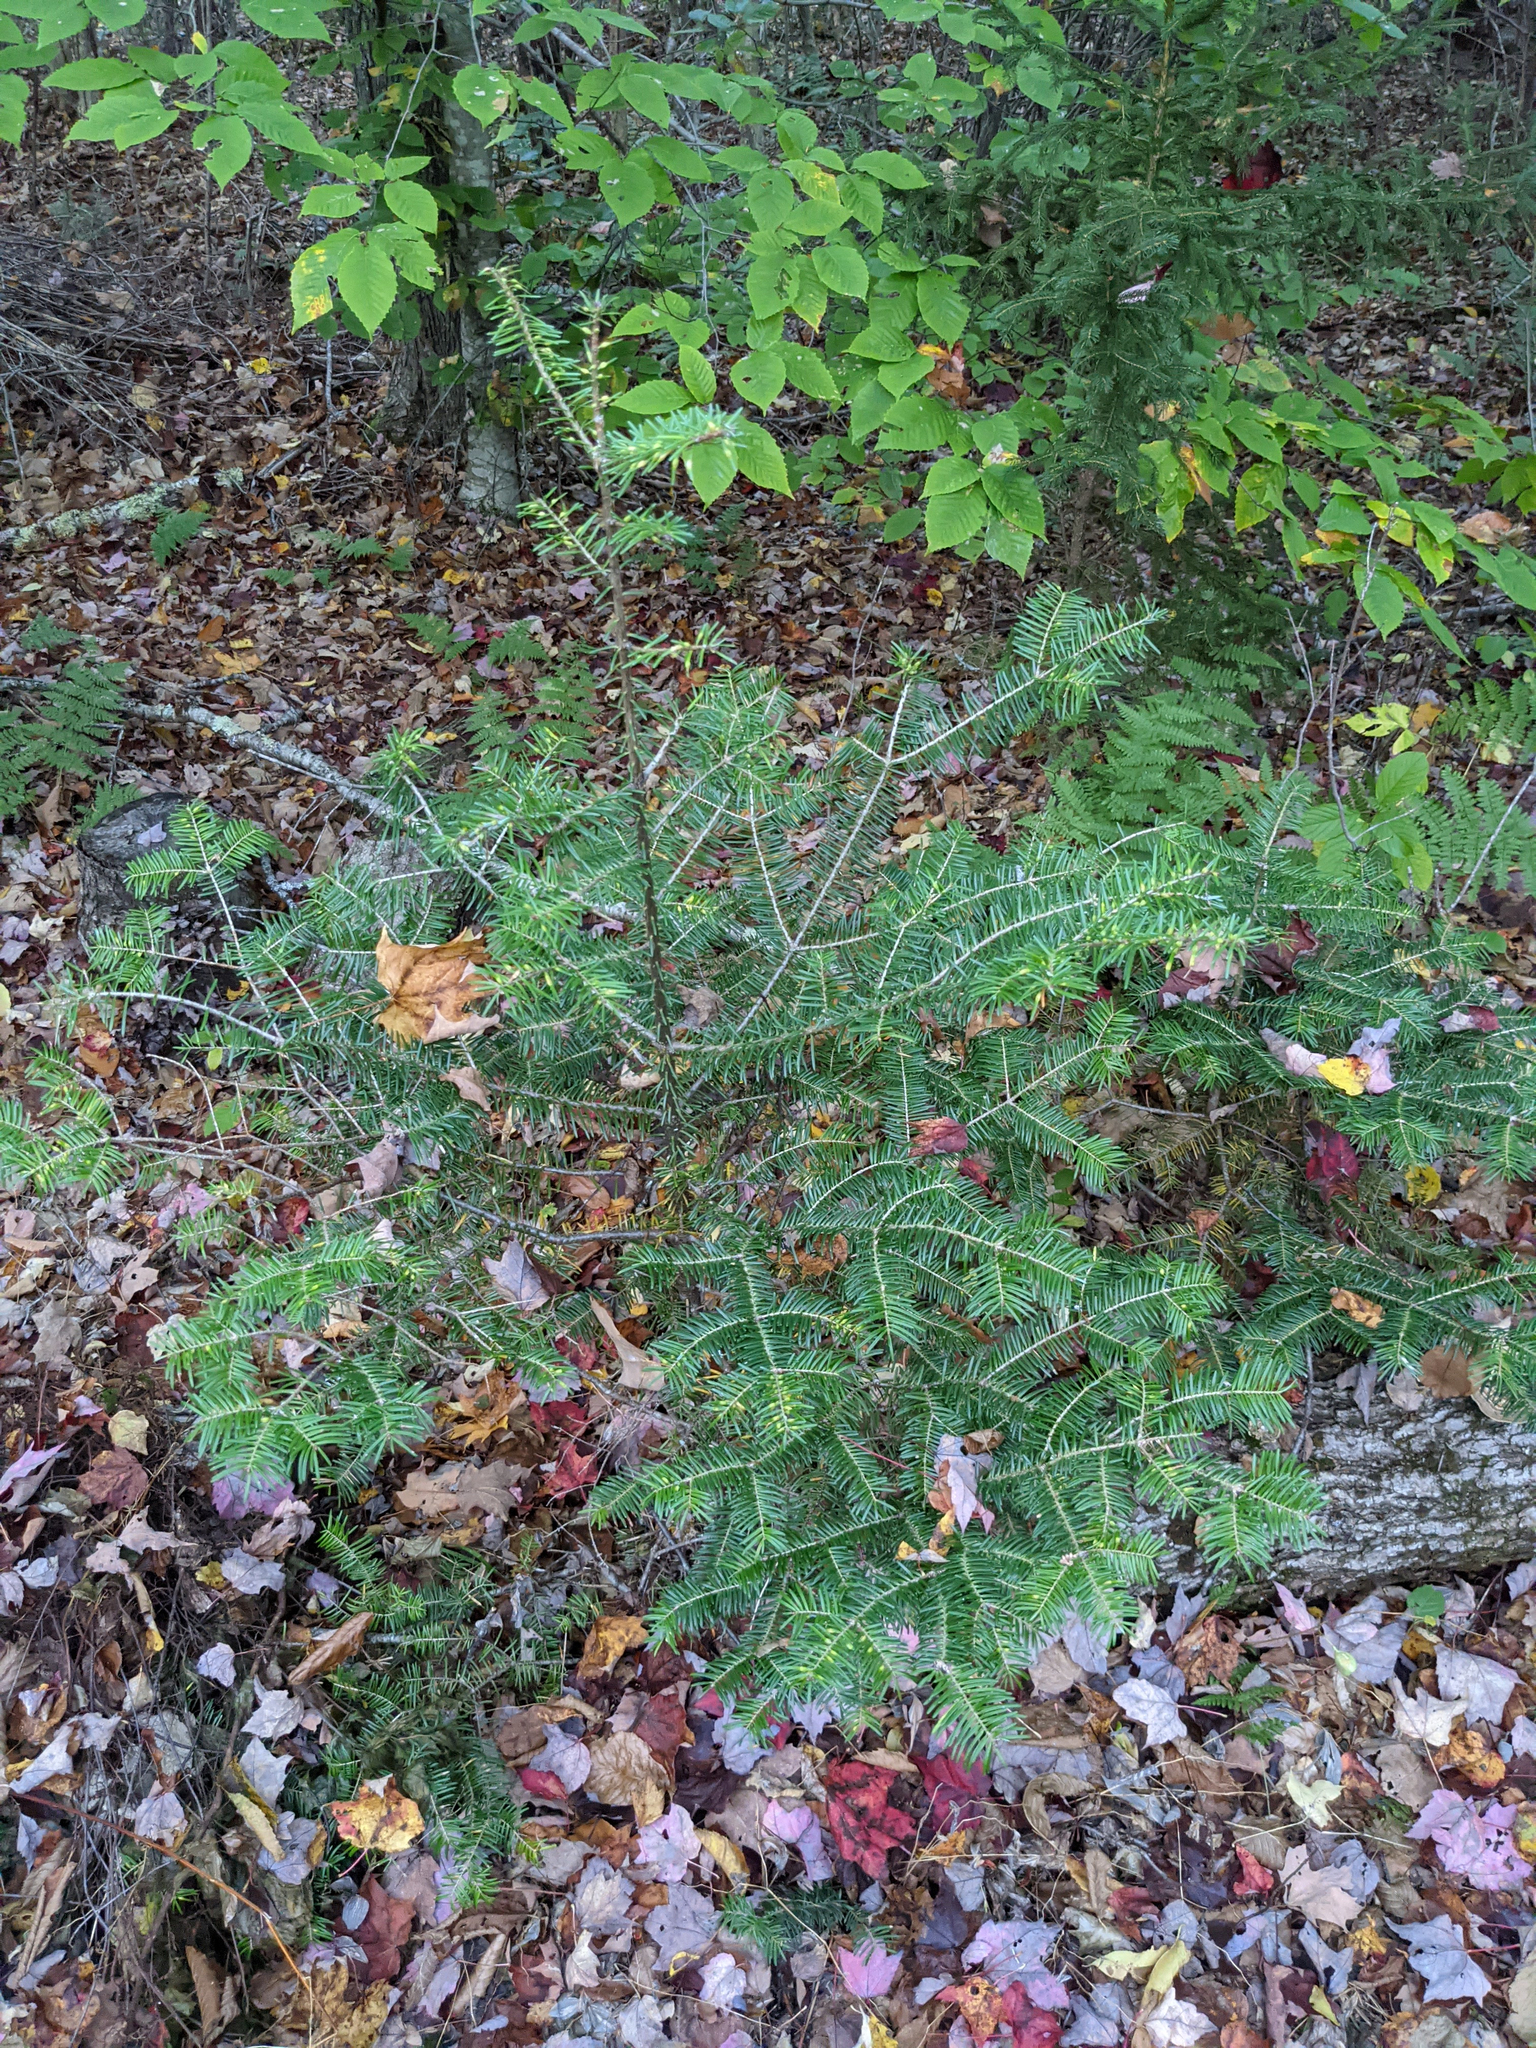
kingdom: Plantae
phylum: Tracheophyta
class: Pinopsida
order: Pinales
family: Pinaceae
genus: Abies
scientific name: Abies balsamea
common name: Balsam fir
